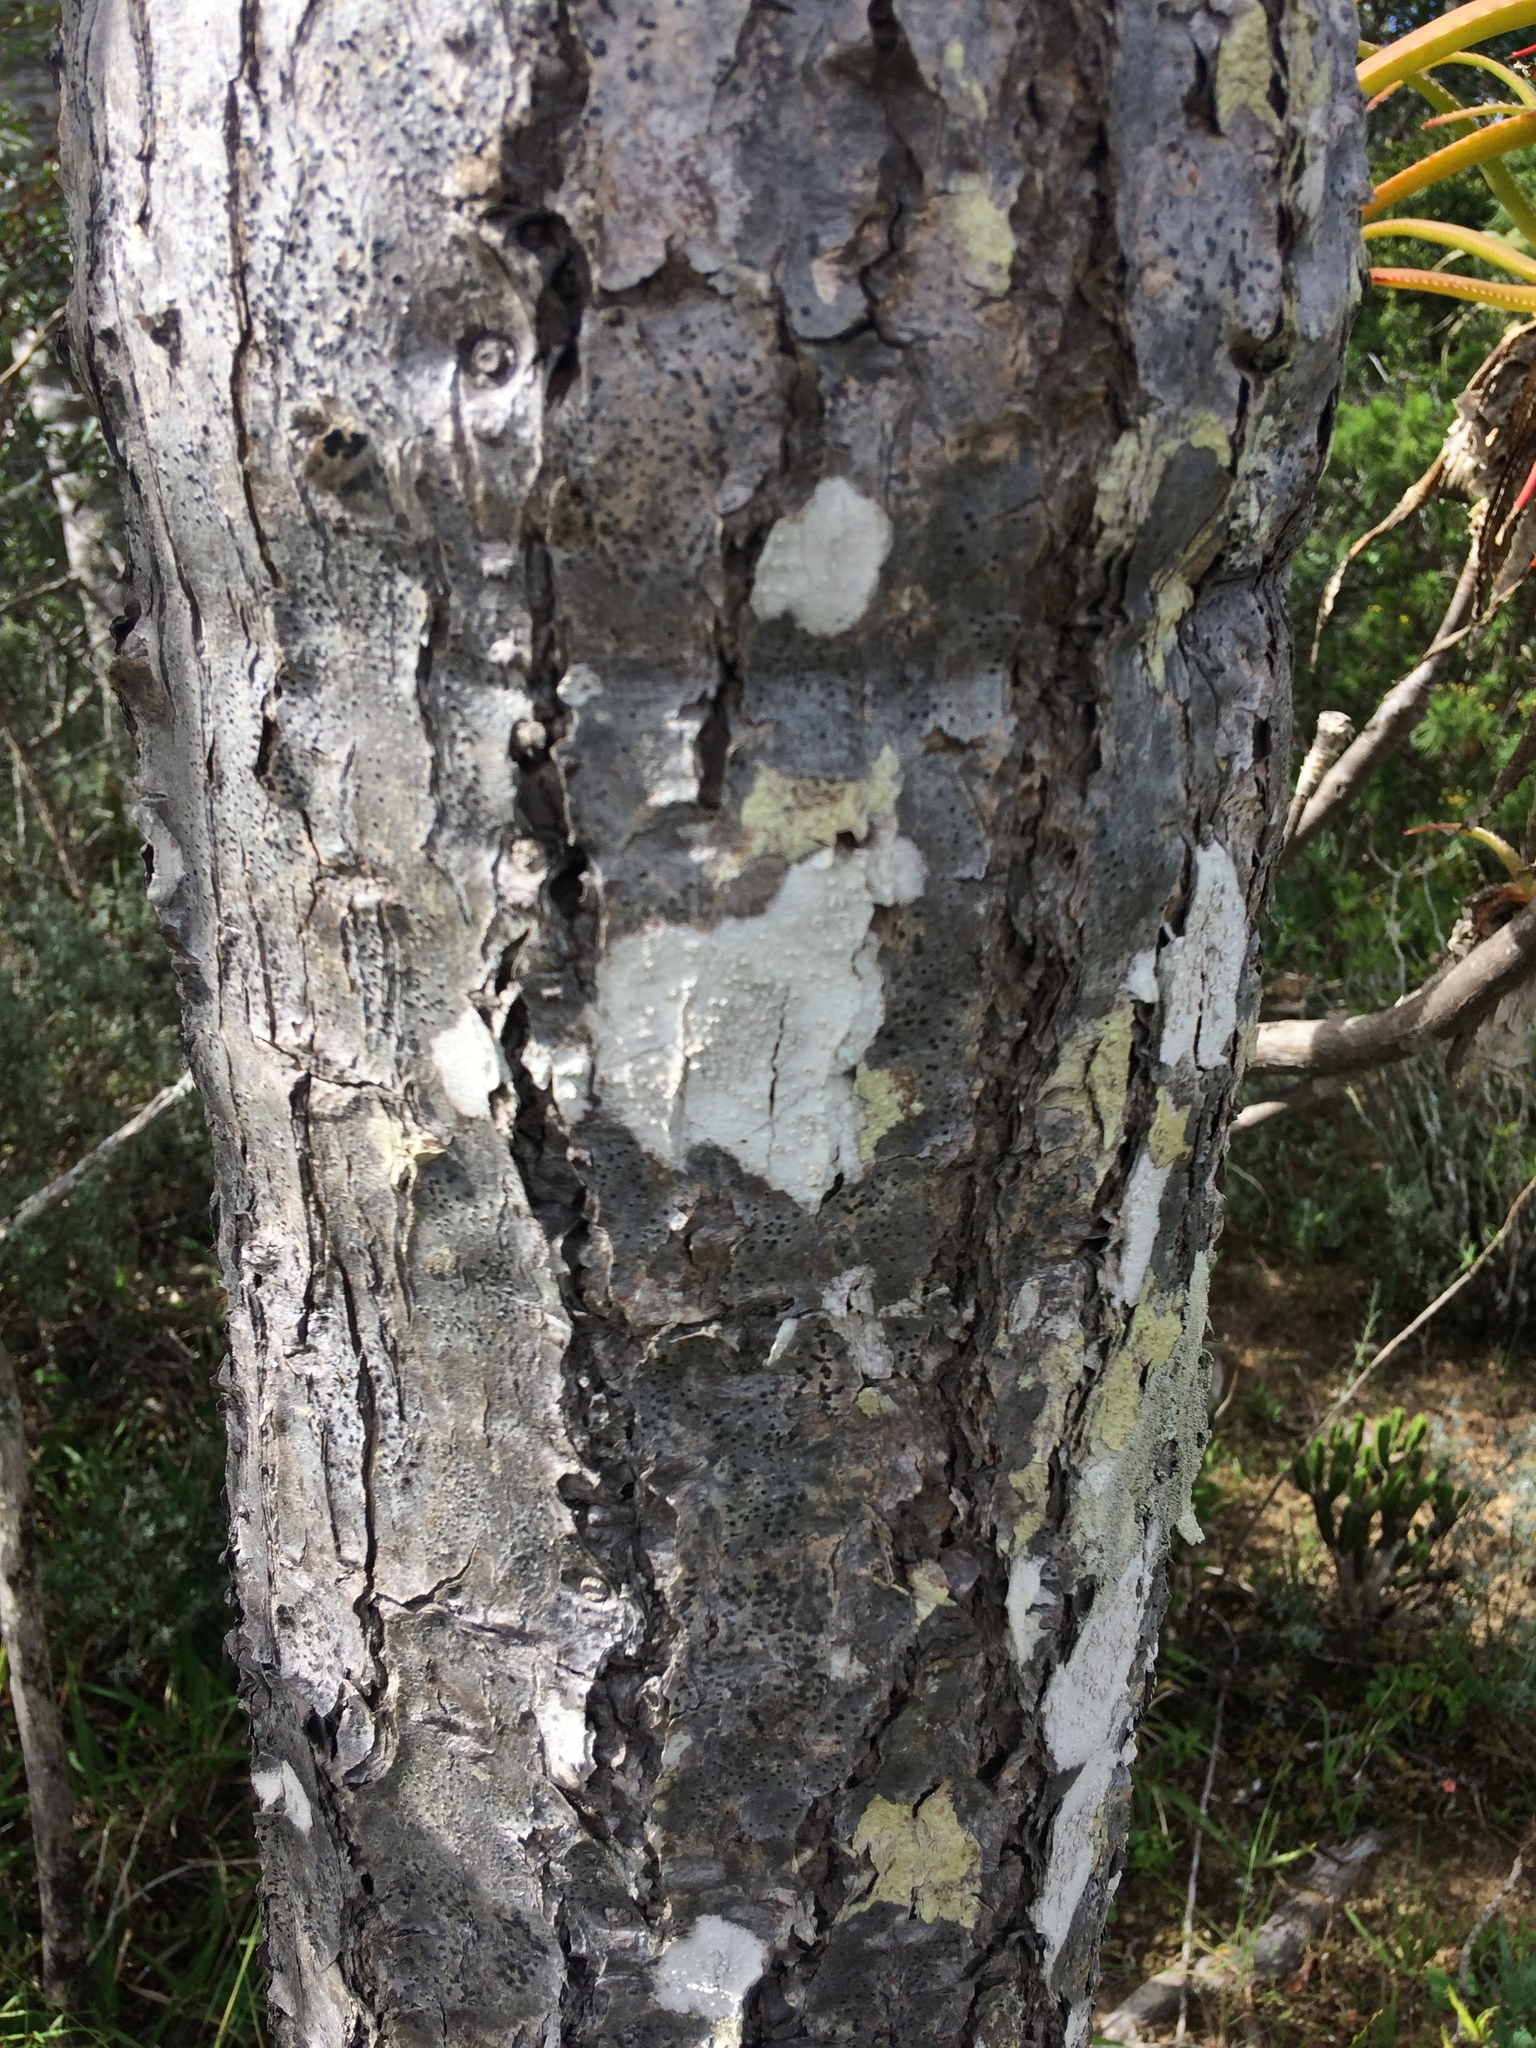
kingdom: Plantae
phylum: Tracheophyta
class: Magnoliopsida
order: Malpighiales
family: Euphorbiaceae
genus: Euphorbia
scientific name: Euphorbia tetragona
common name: Honey euphorbia
